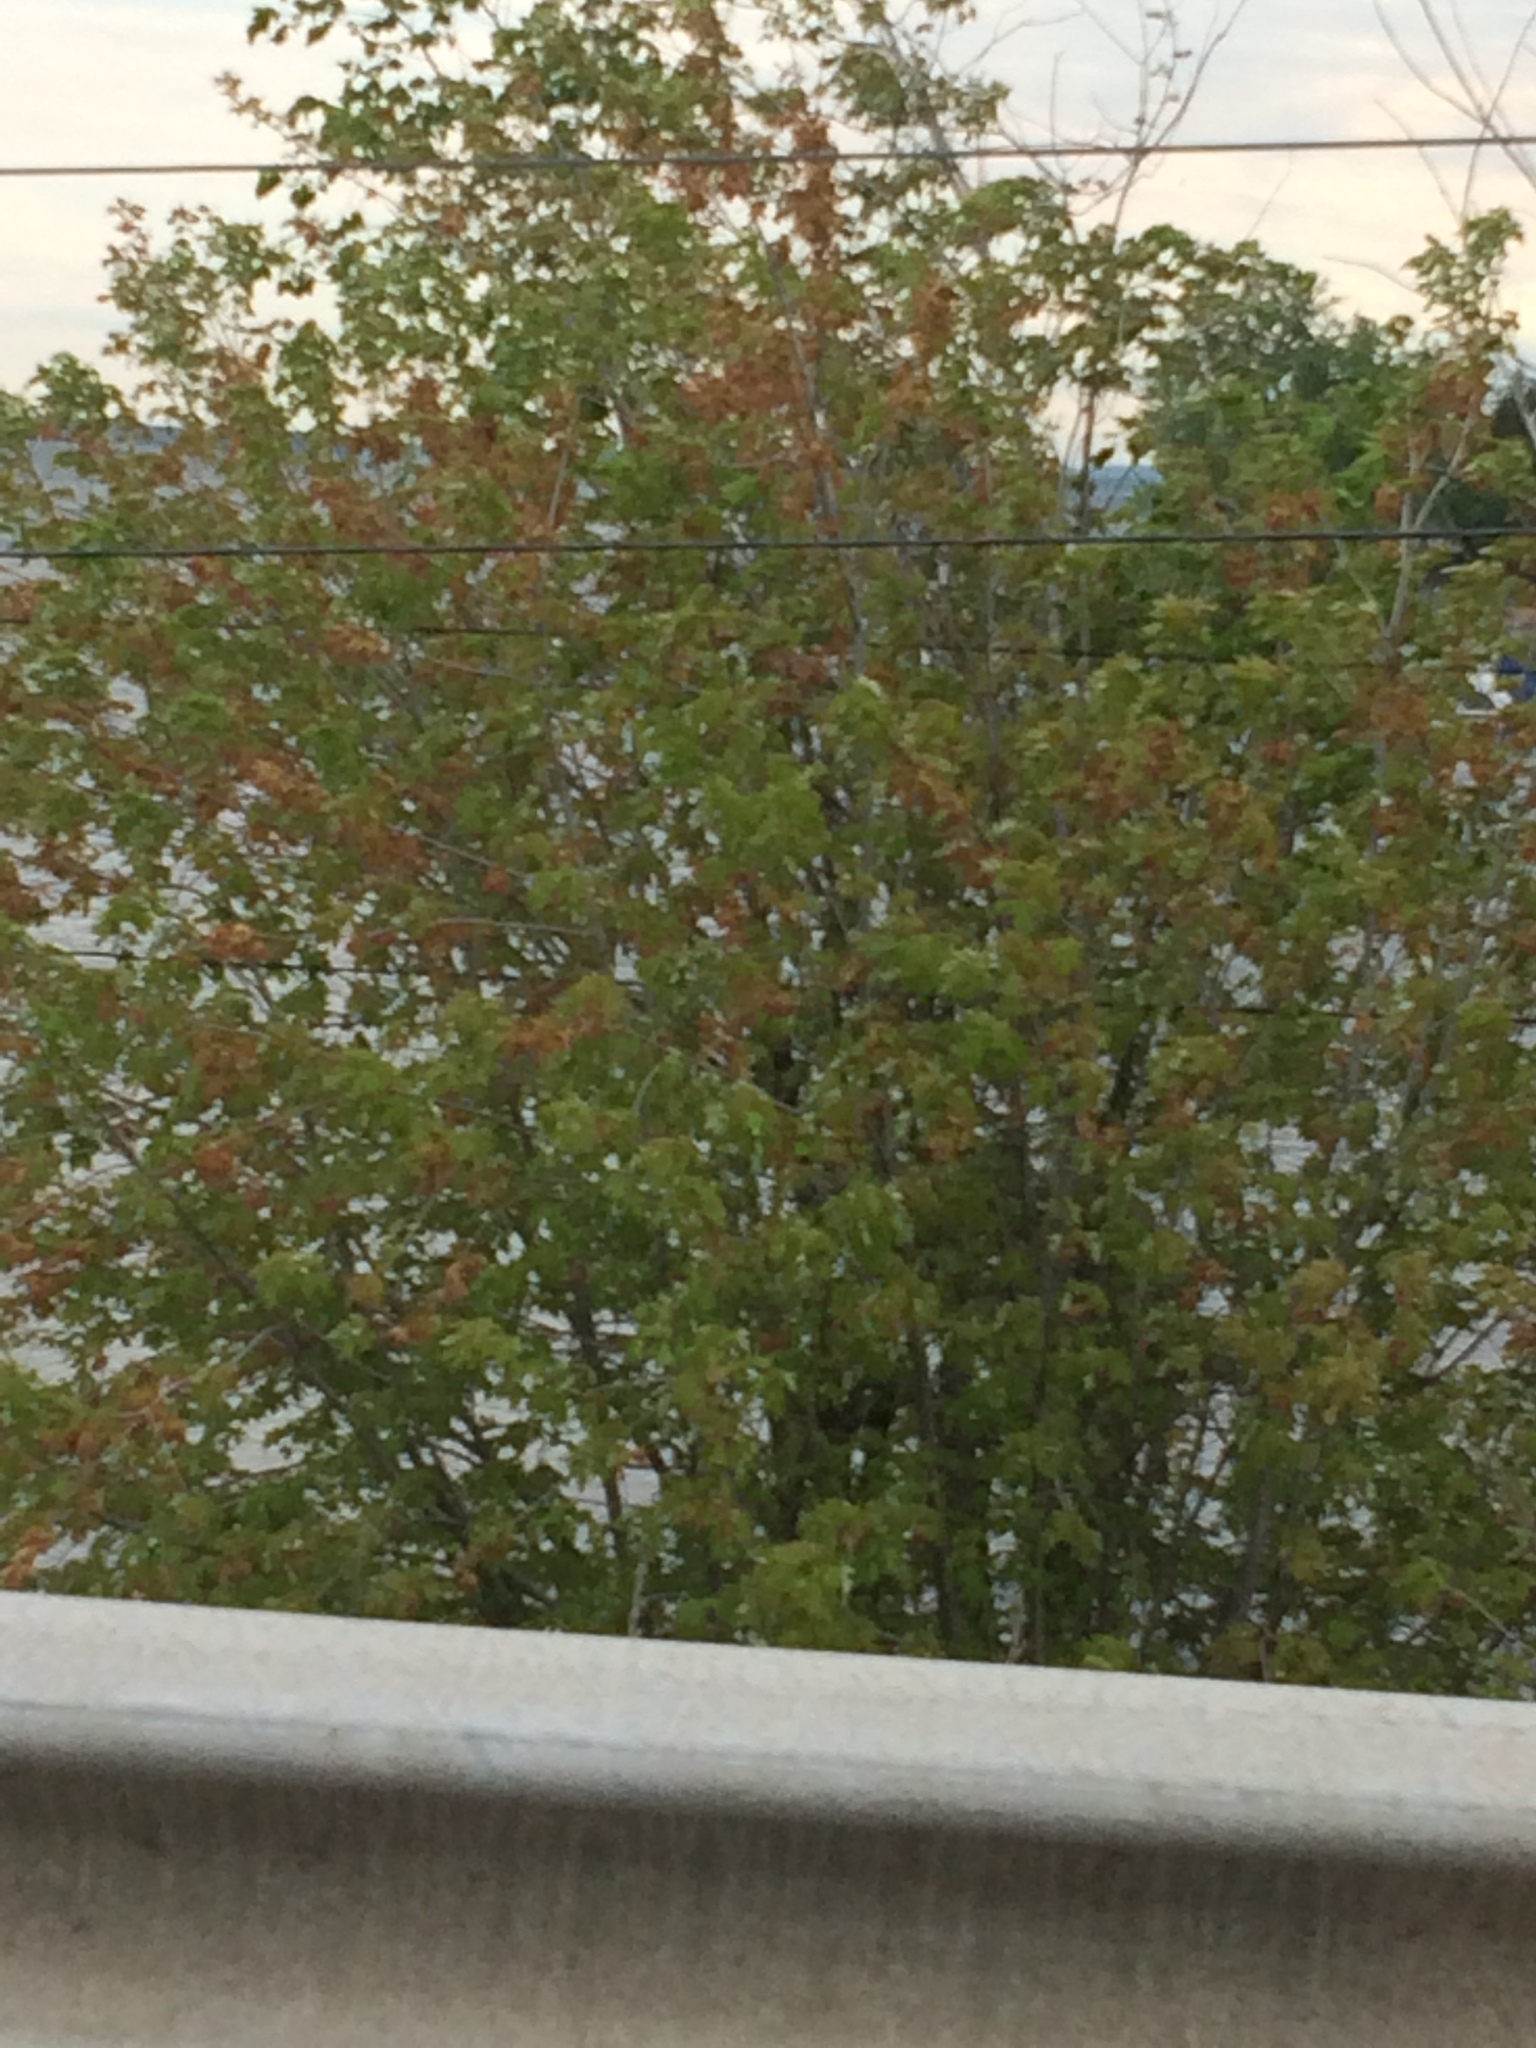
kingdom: Plantae
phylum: Tracheophyta
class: Magnoliopsida
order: Sapindales
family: Sapindaceae
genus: Acer
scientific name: Acer saccharinum
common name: Silver maple
